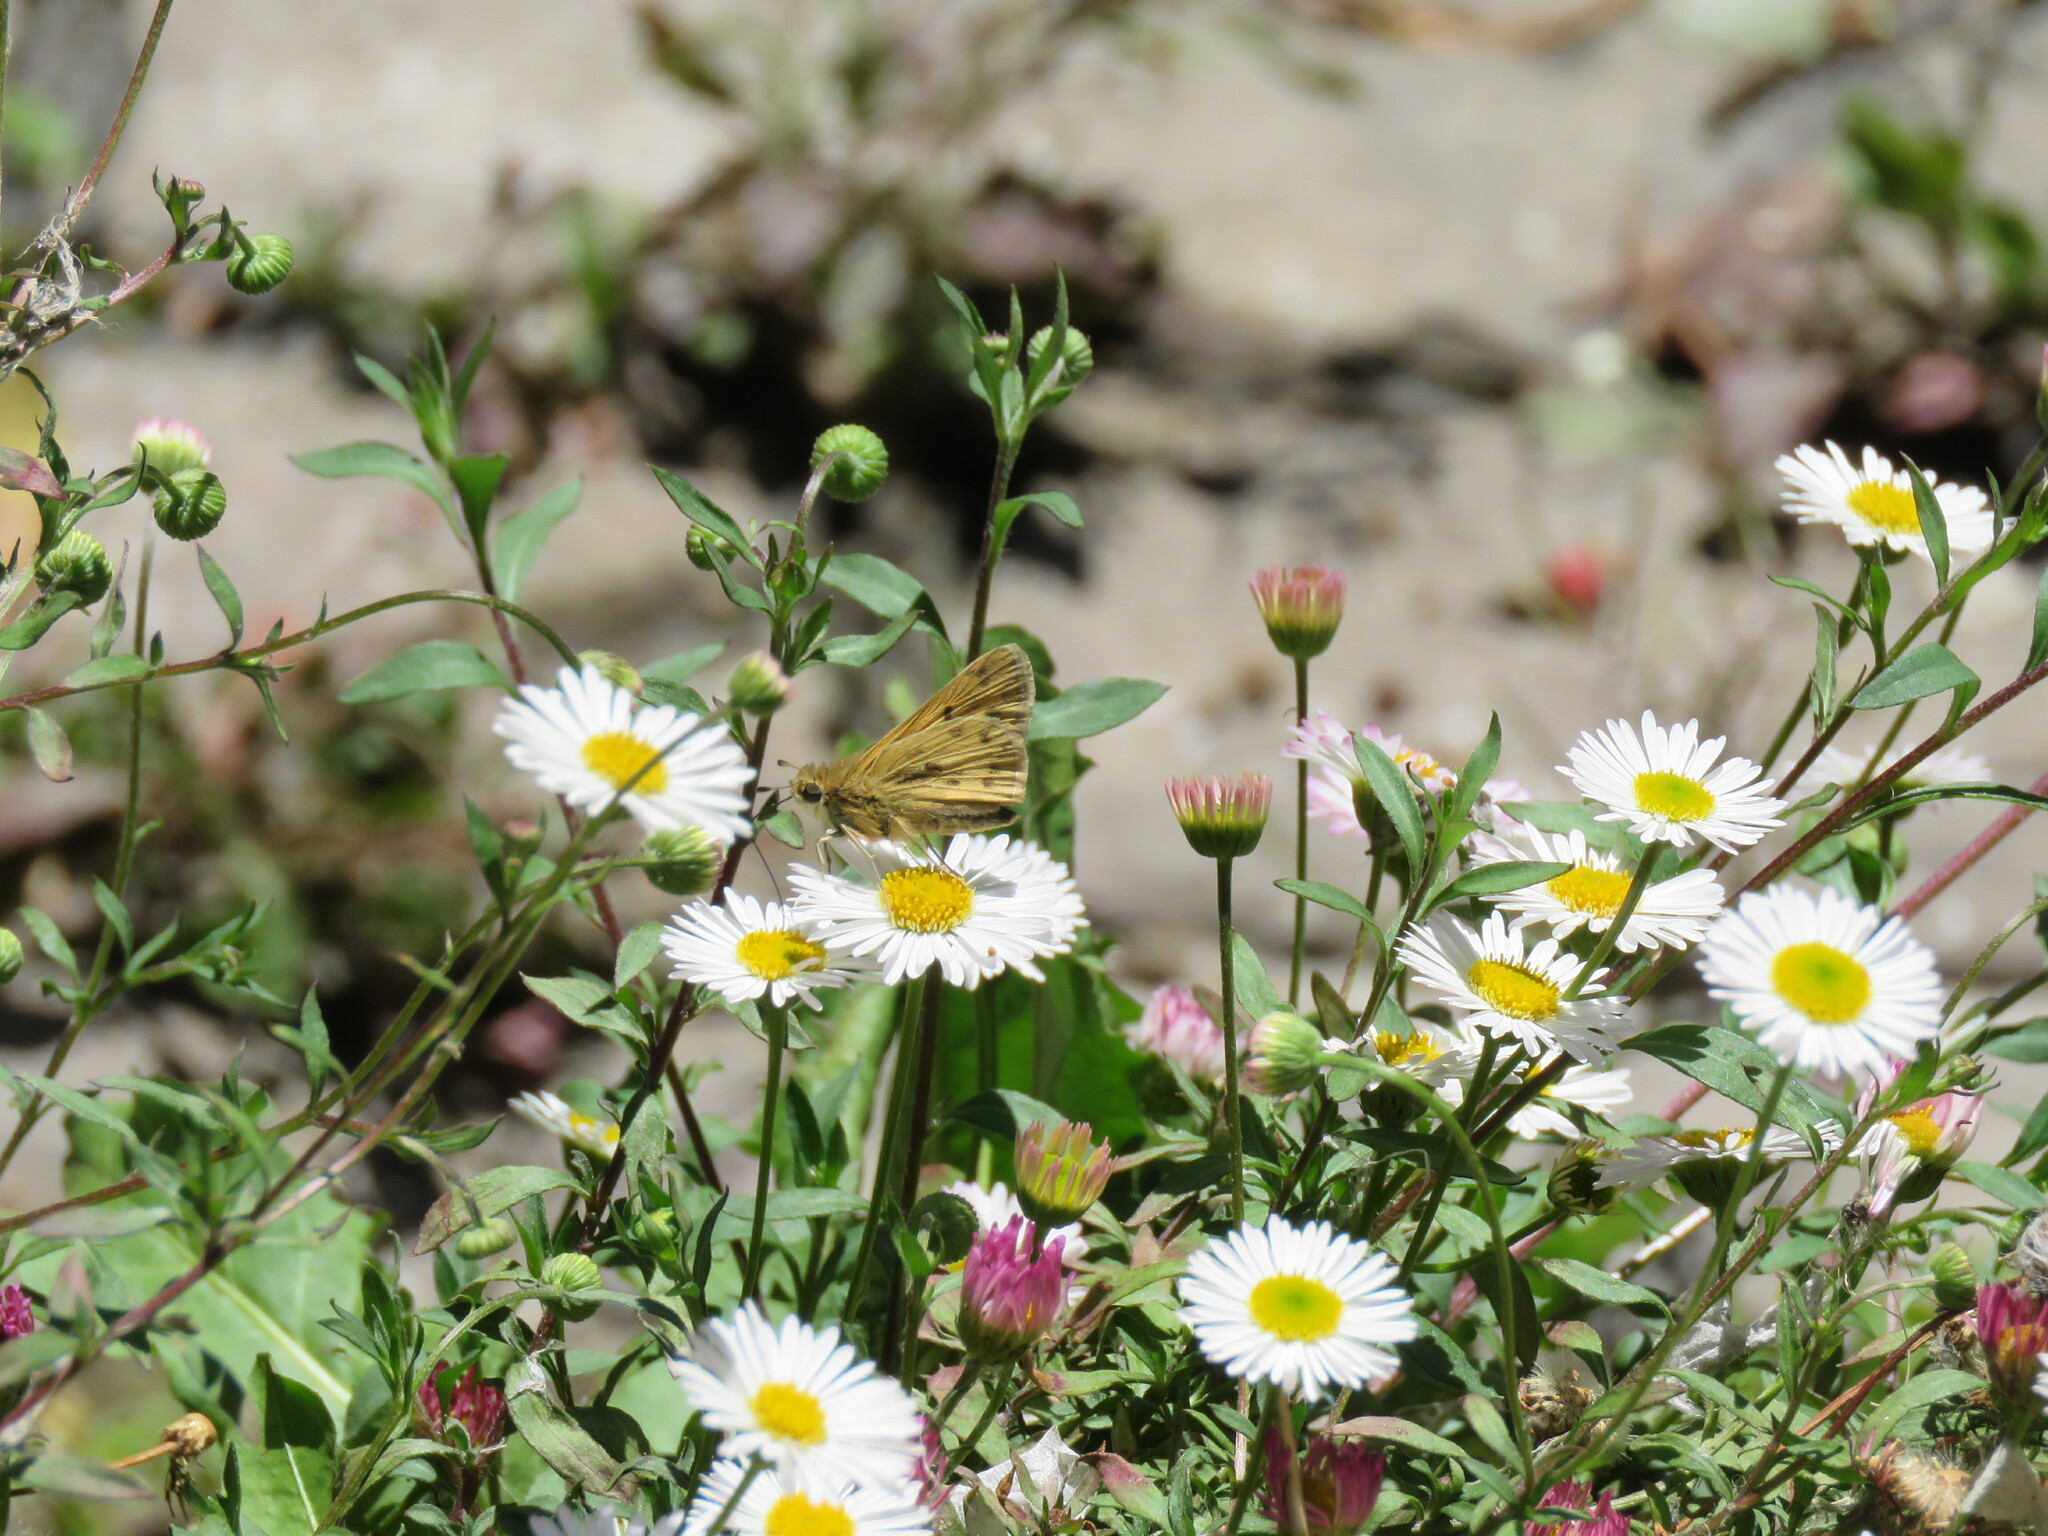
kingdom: Animalia
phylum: Arthropoda
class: Insecta
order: Lepidoptera
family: Hesperiidae
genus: Hylephila
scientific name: Hylephila phyleus
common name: Fiery skipper
